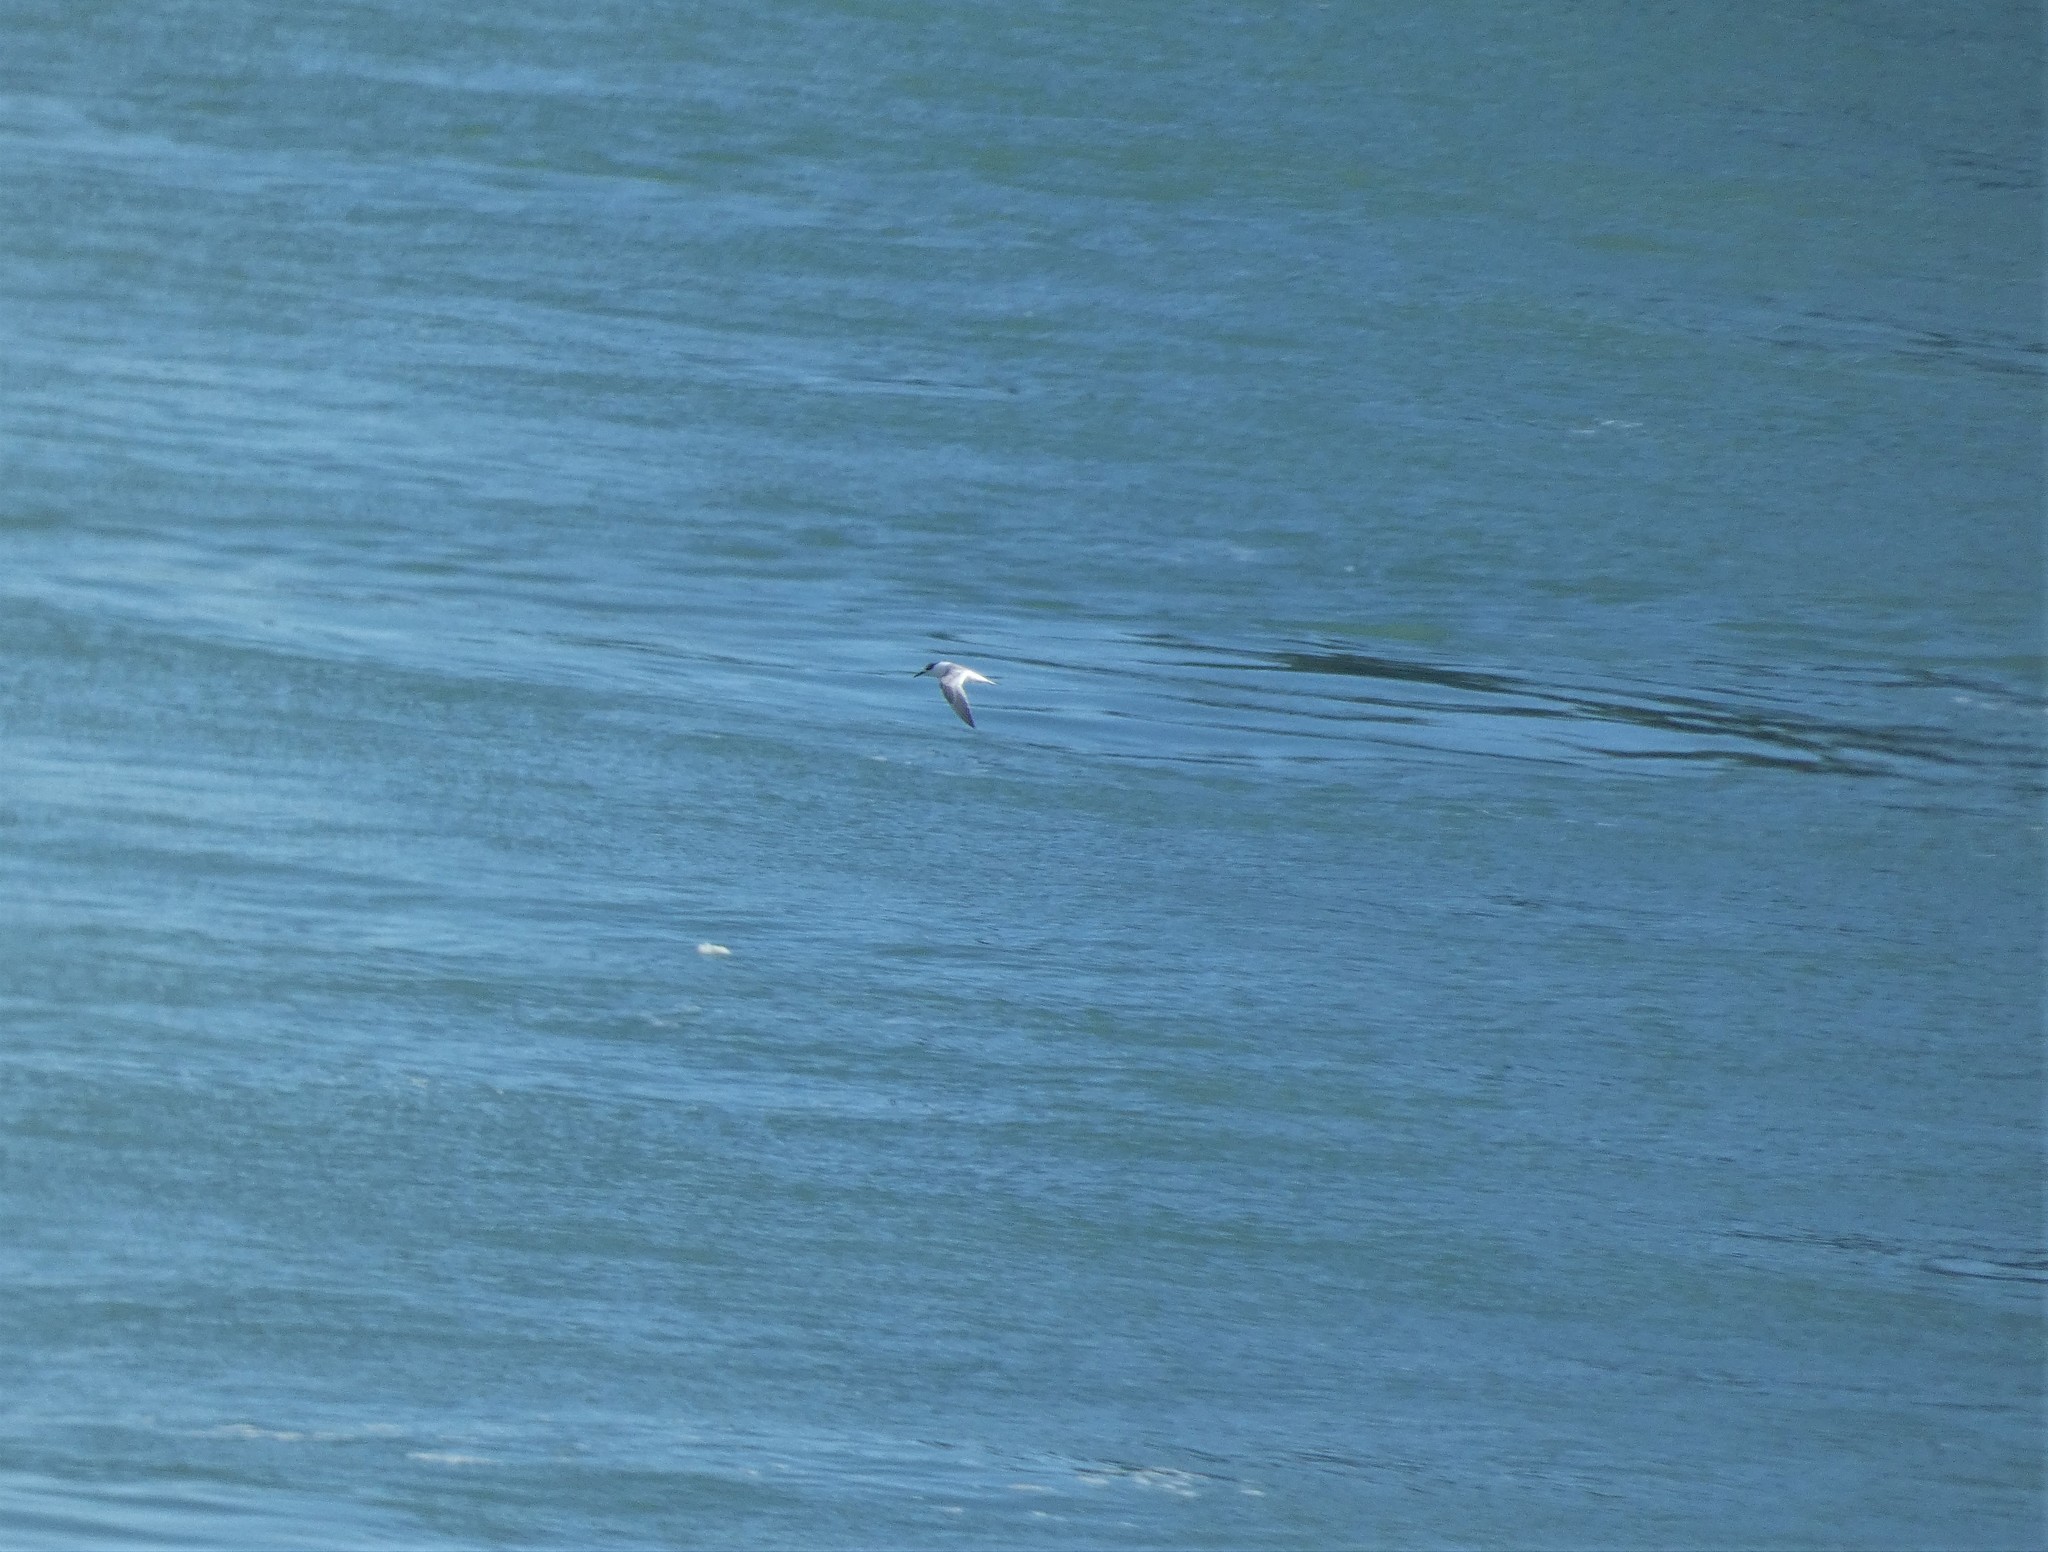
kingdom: Animalia
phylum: Chordata
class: Aves
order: Charadriiformes
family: Laridae
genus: Thalasseus
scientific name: Thalasseus sandvicensis
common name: Sandwich tern
